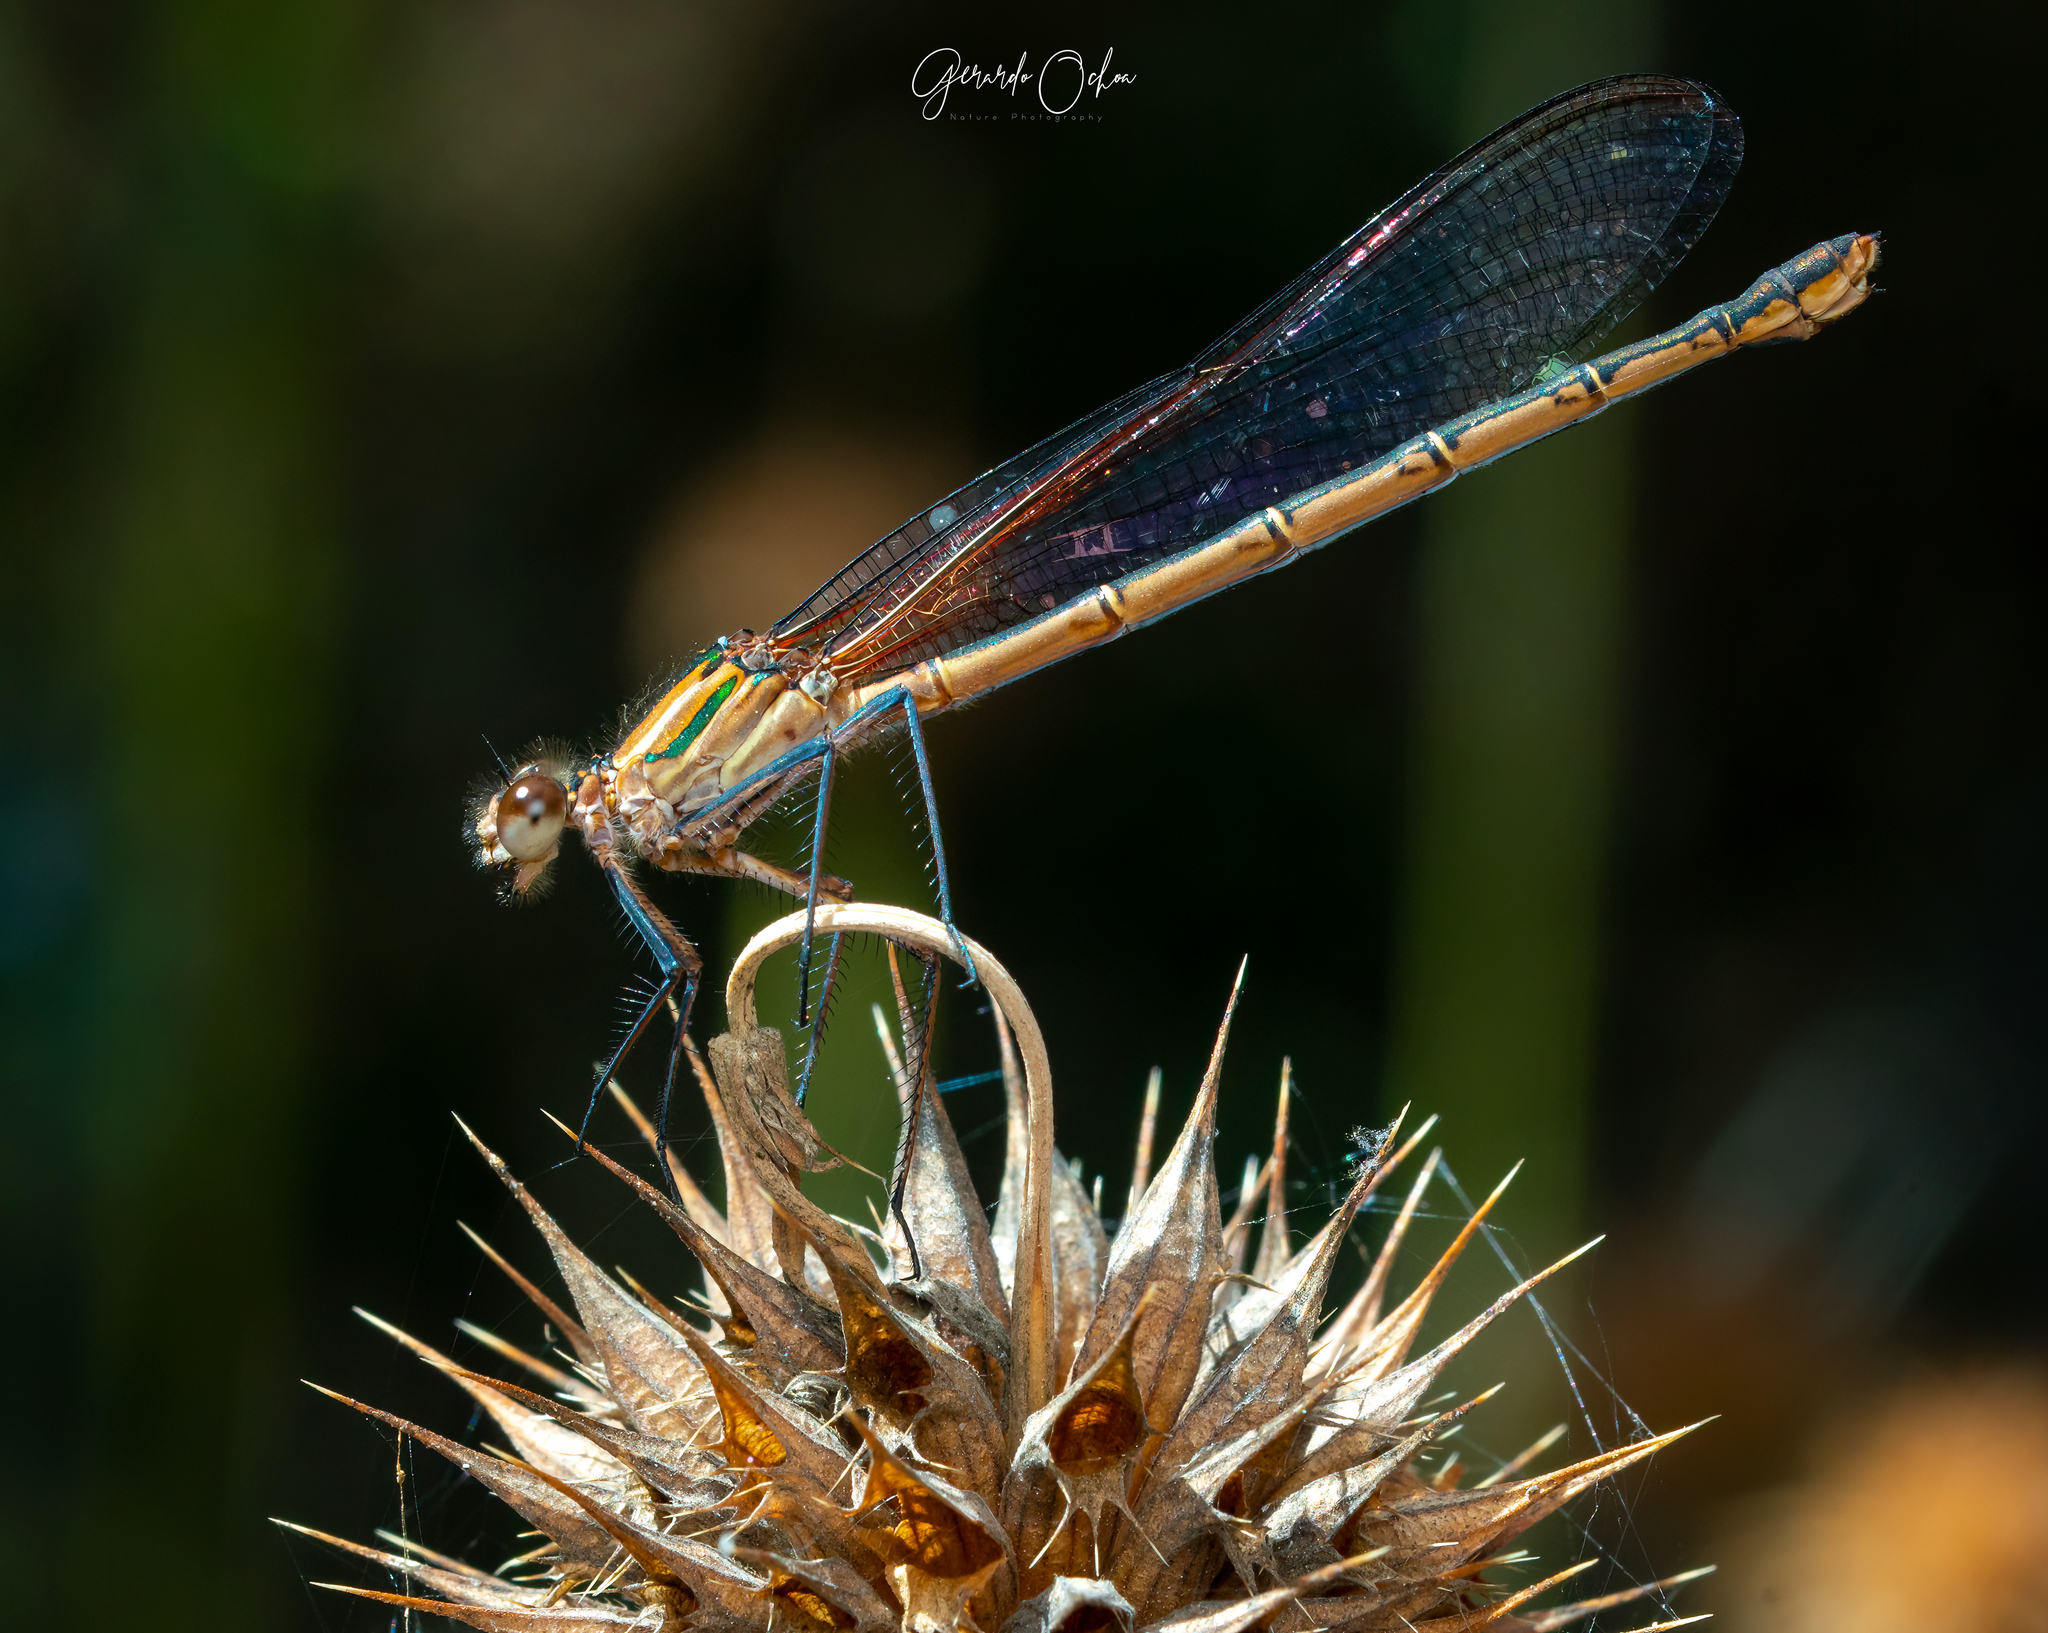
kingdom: Animalia
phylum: Arthropoda
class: Insecta
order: Odonata
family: Calopterygidae
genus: Hetaerina
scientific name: Hetaerina vulnerata
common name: Canyon rubyspot
